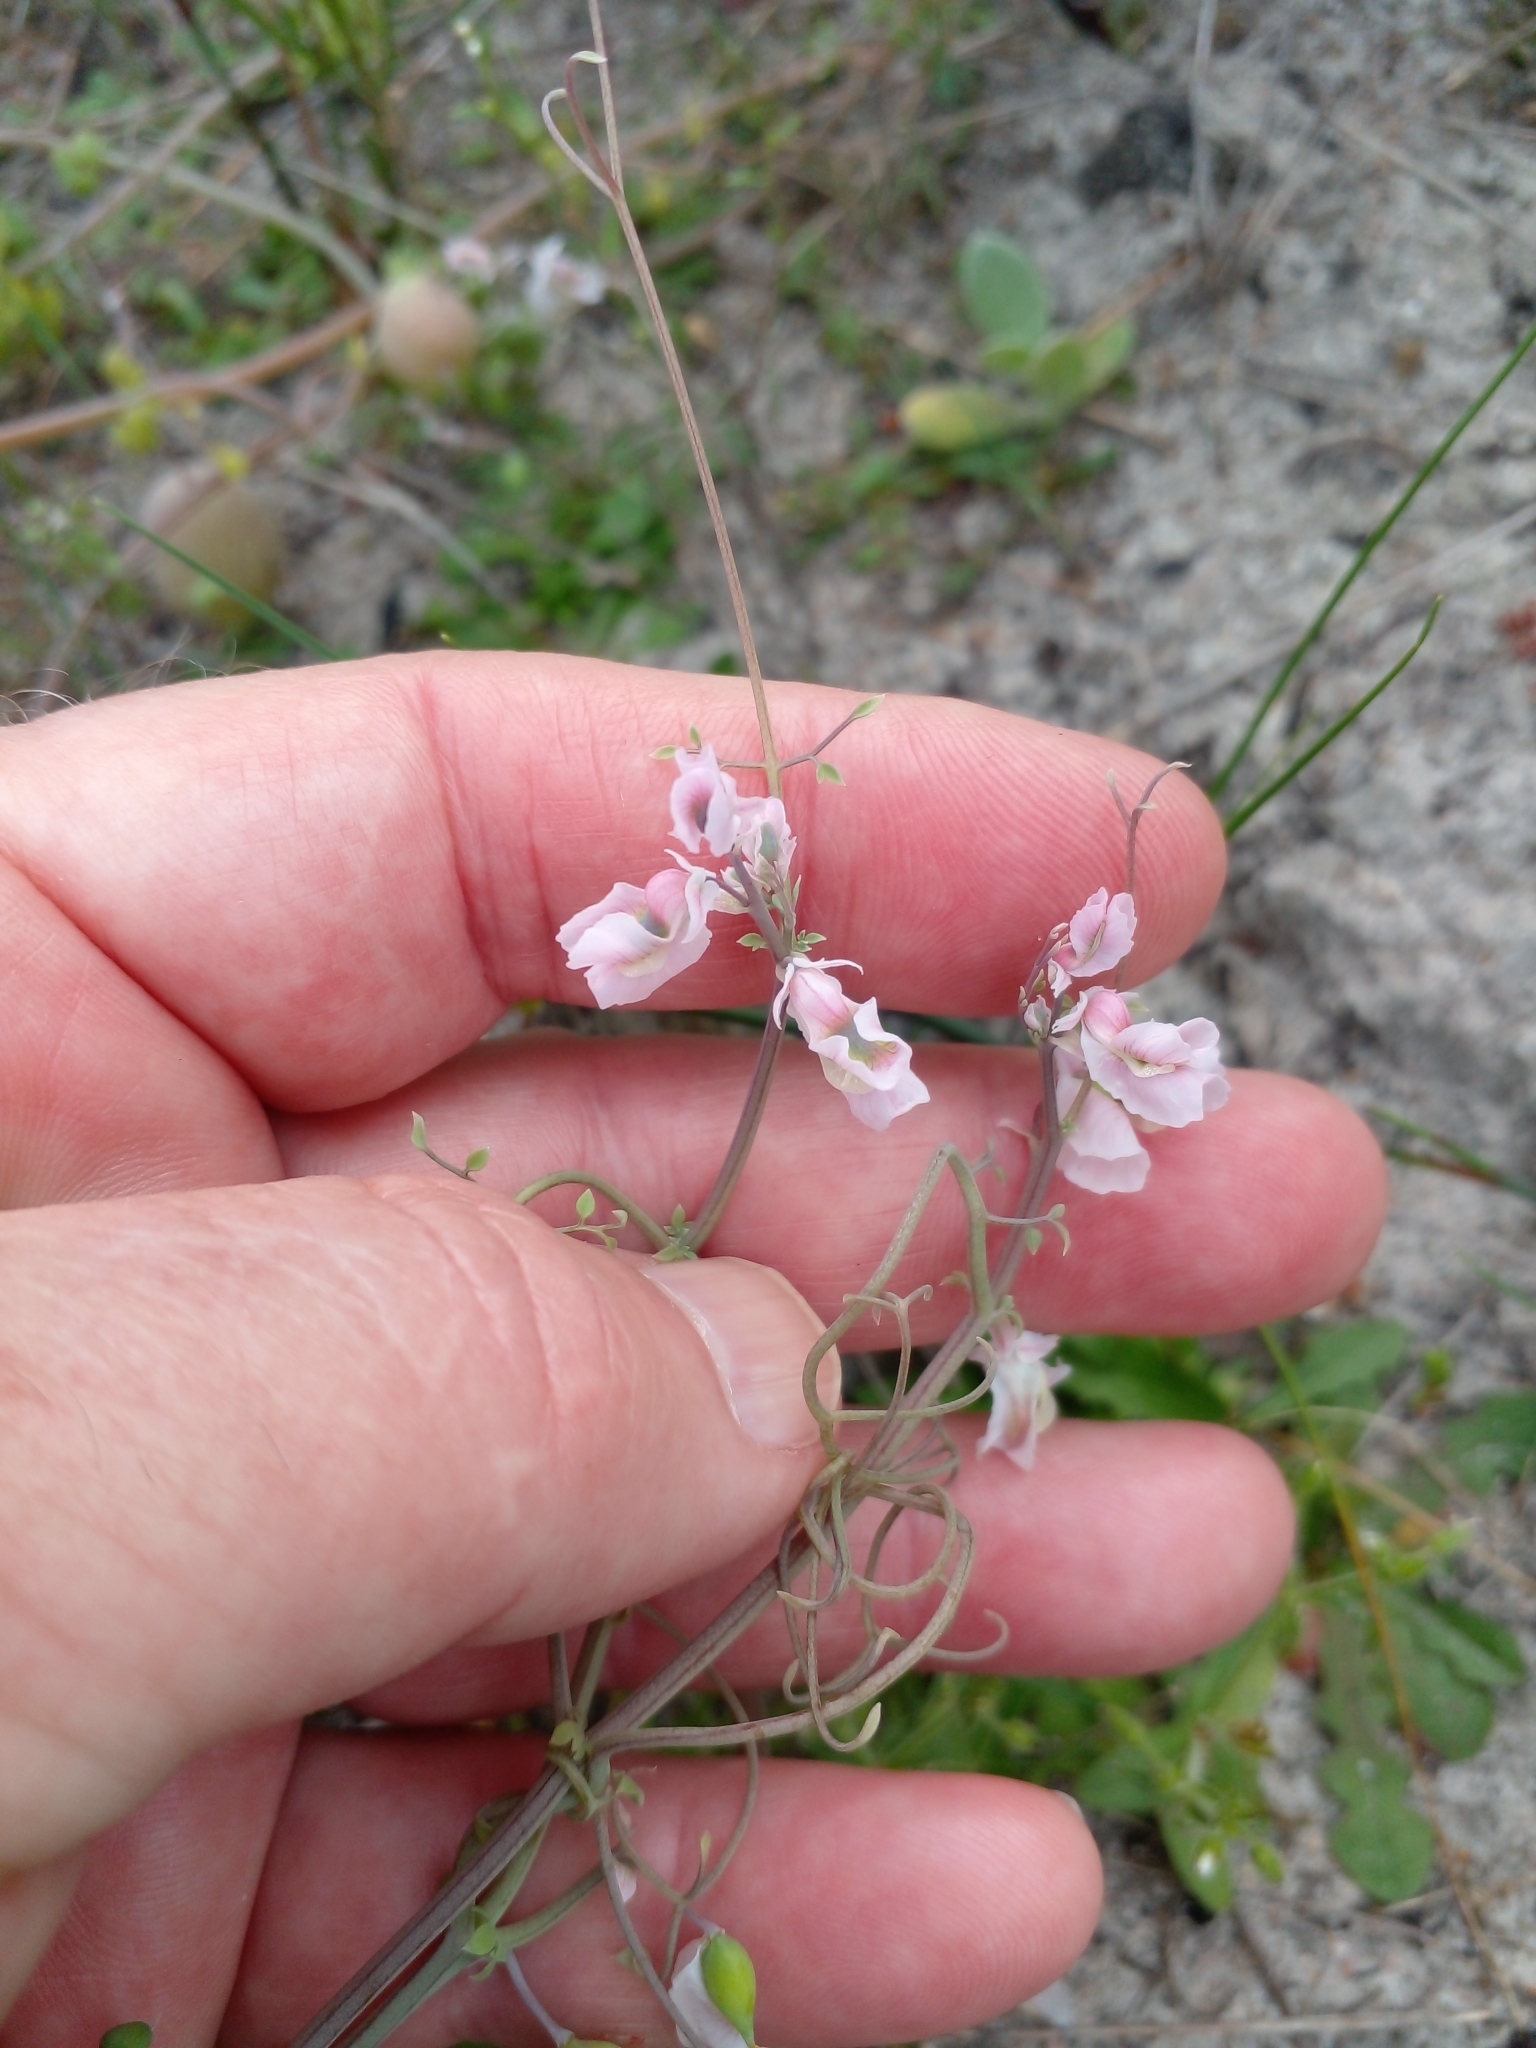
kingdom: Plantae
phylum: Tracheophyta
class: Magnoliopsida
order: Ranunculales
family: Papaveraceae
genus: Cysticapnos
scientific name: Cysticapnos vesicaria
